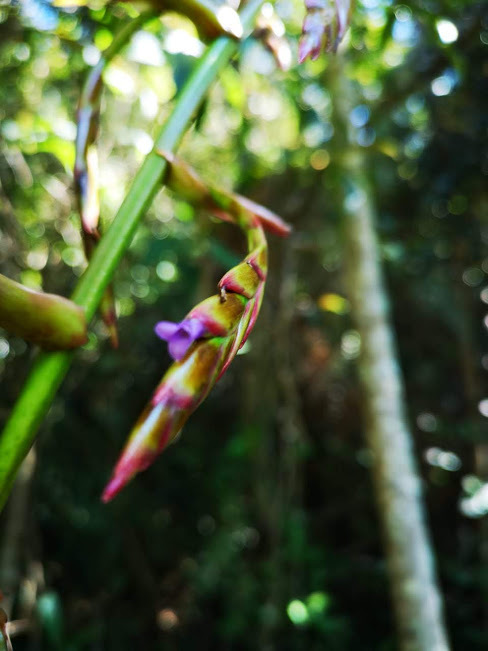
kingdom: Plantae
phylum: Tracheophyta
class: Liliopsida
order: Poales
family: Bromeliaceae
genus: Tillandsia
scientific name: Tillandsia denudata
